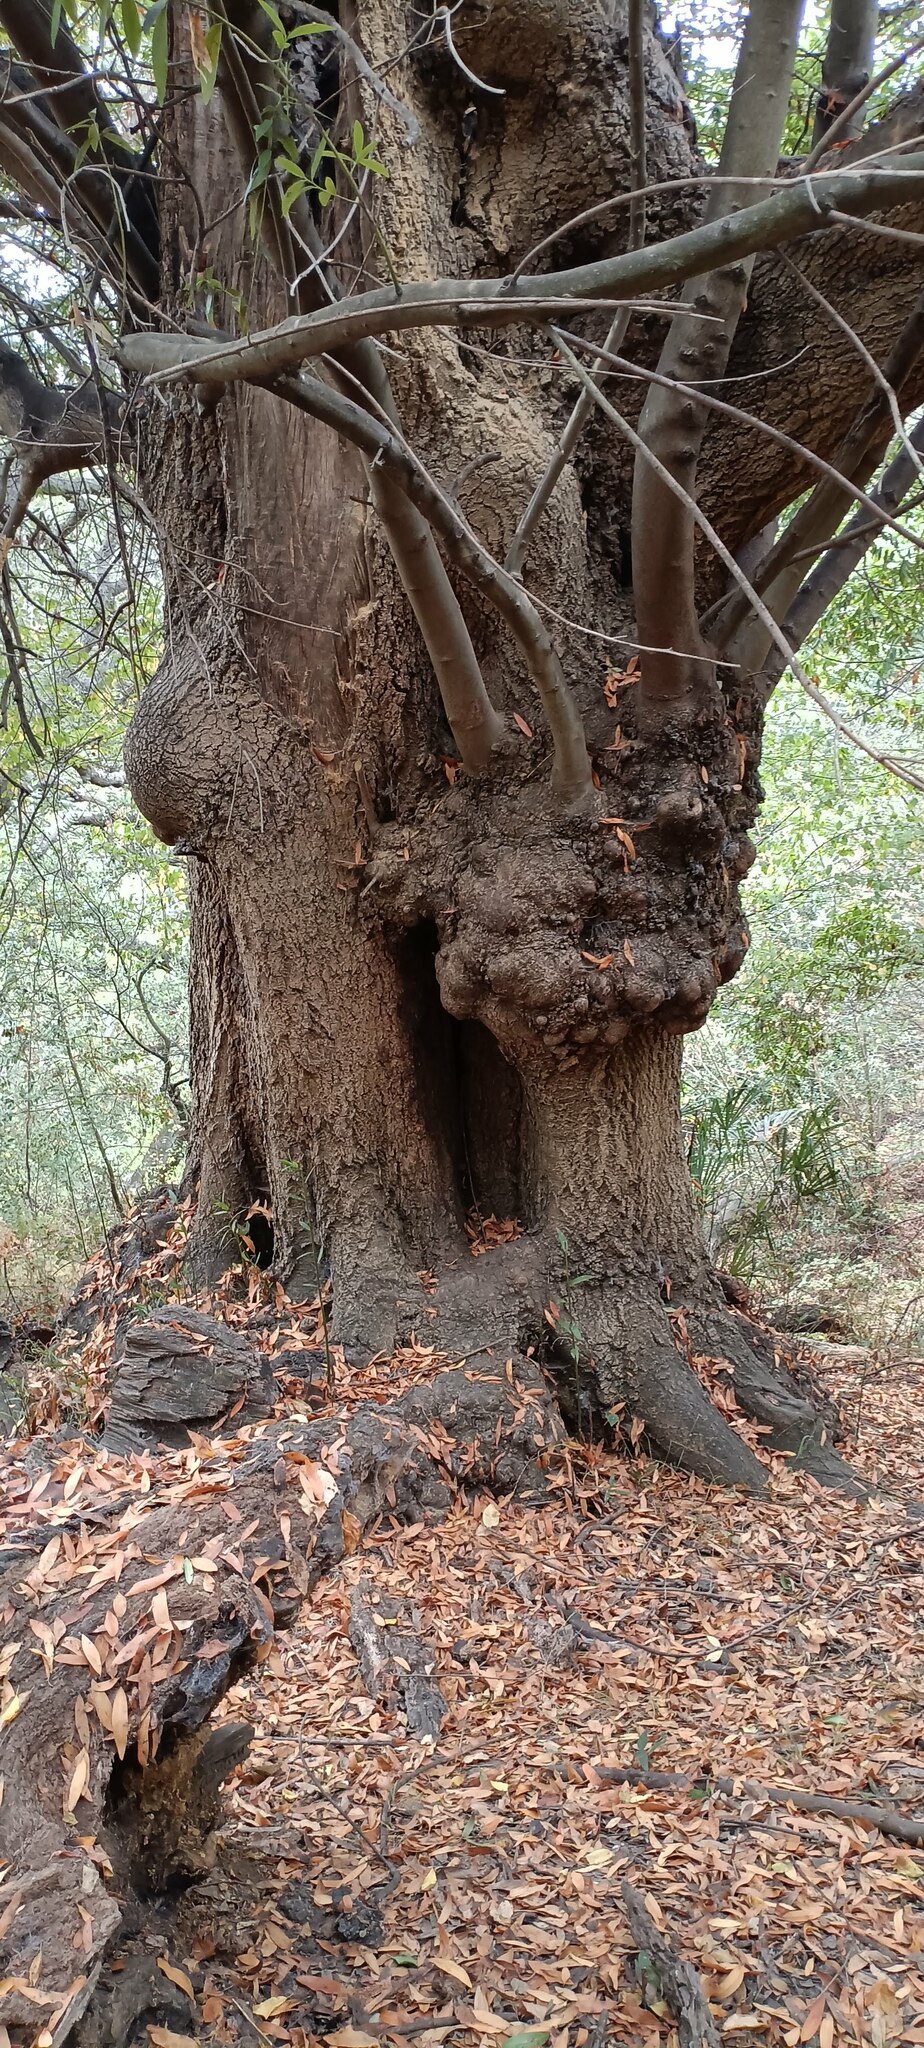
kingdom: Plantae
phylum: Tracheophyta
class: Magnoliopsida
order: Laurales
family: Lauraceae
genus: Umbellularia
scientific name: Umbellularia californica
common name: California bay
